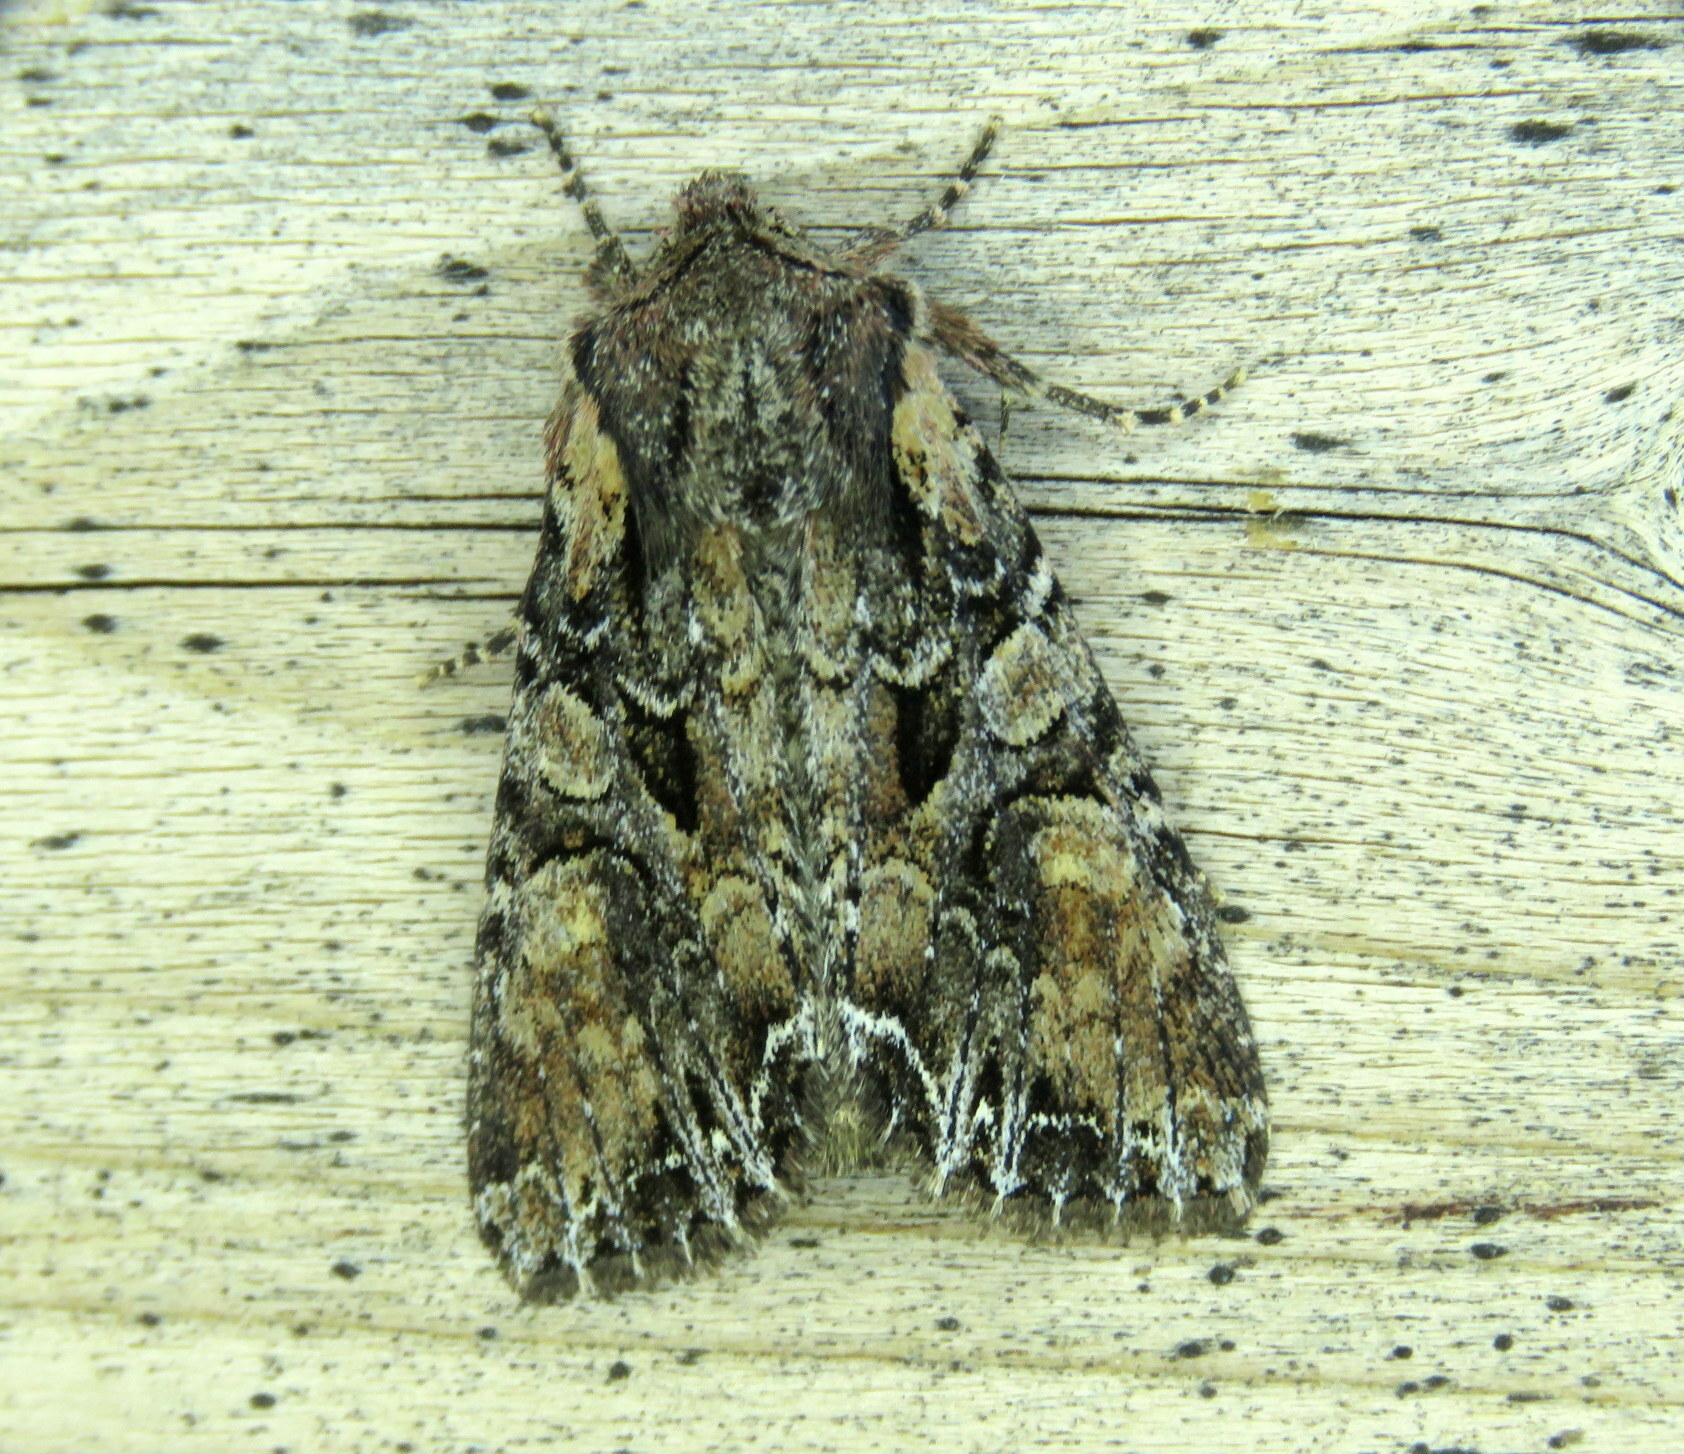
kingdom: Animalia
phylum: Arthropoda
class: Insecta
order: Lepidoptera
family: Noctuidae
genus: Lacanobia
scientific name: Lacanobia nevadae
